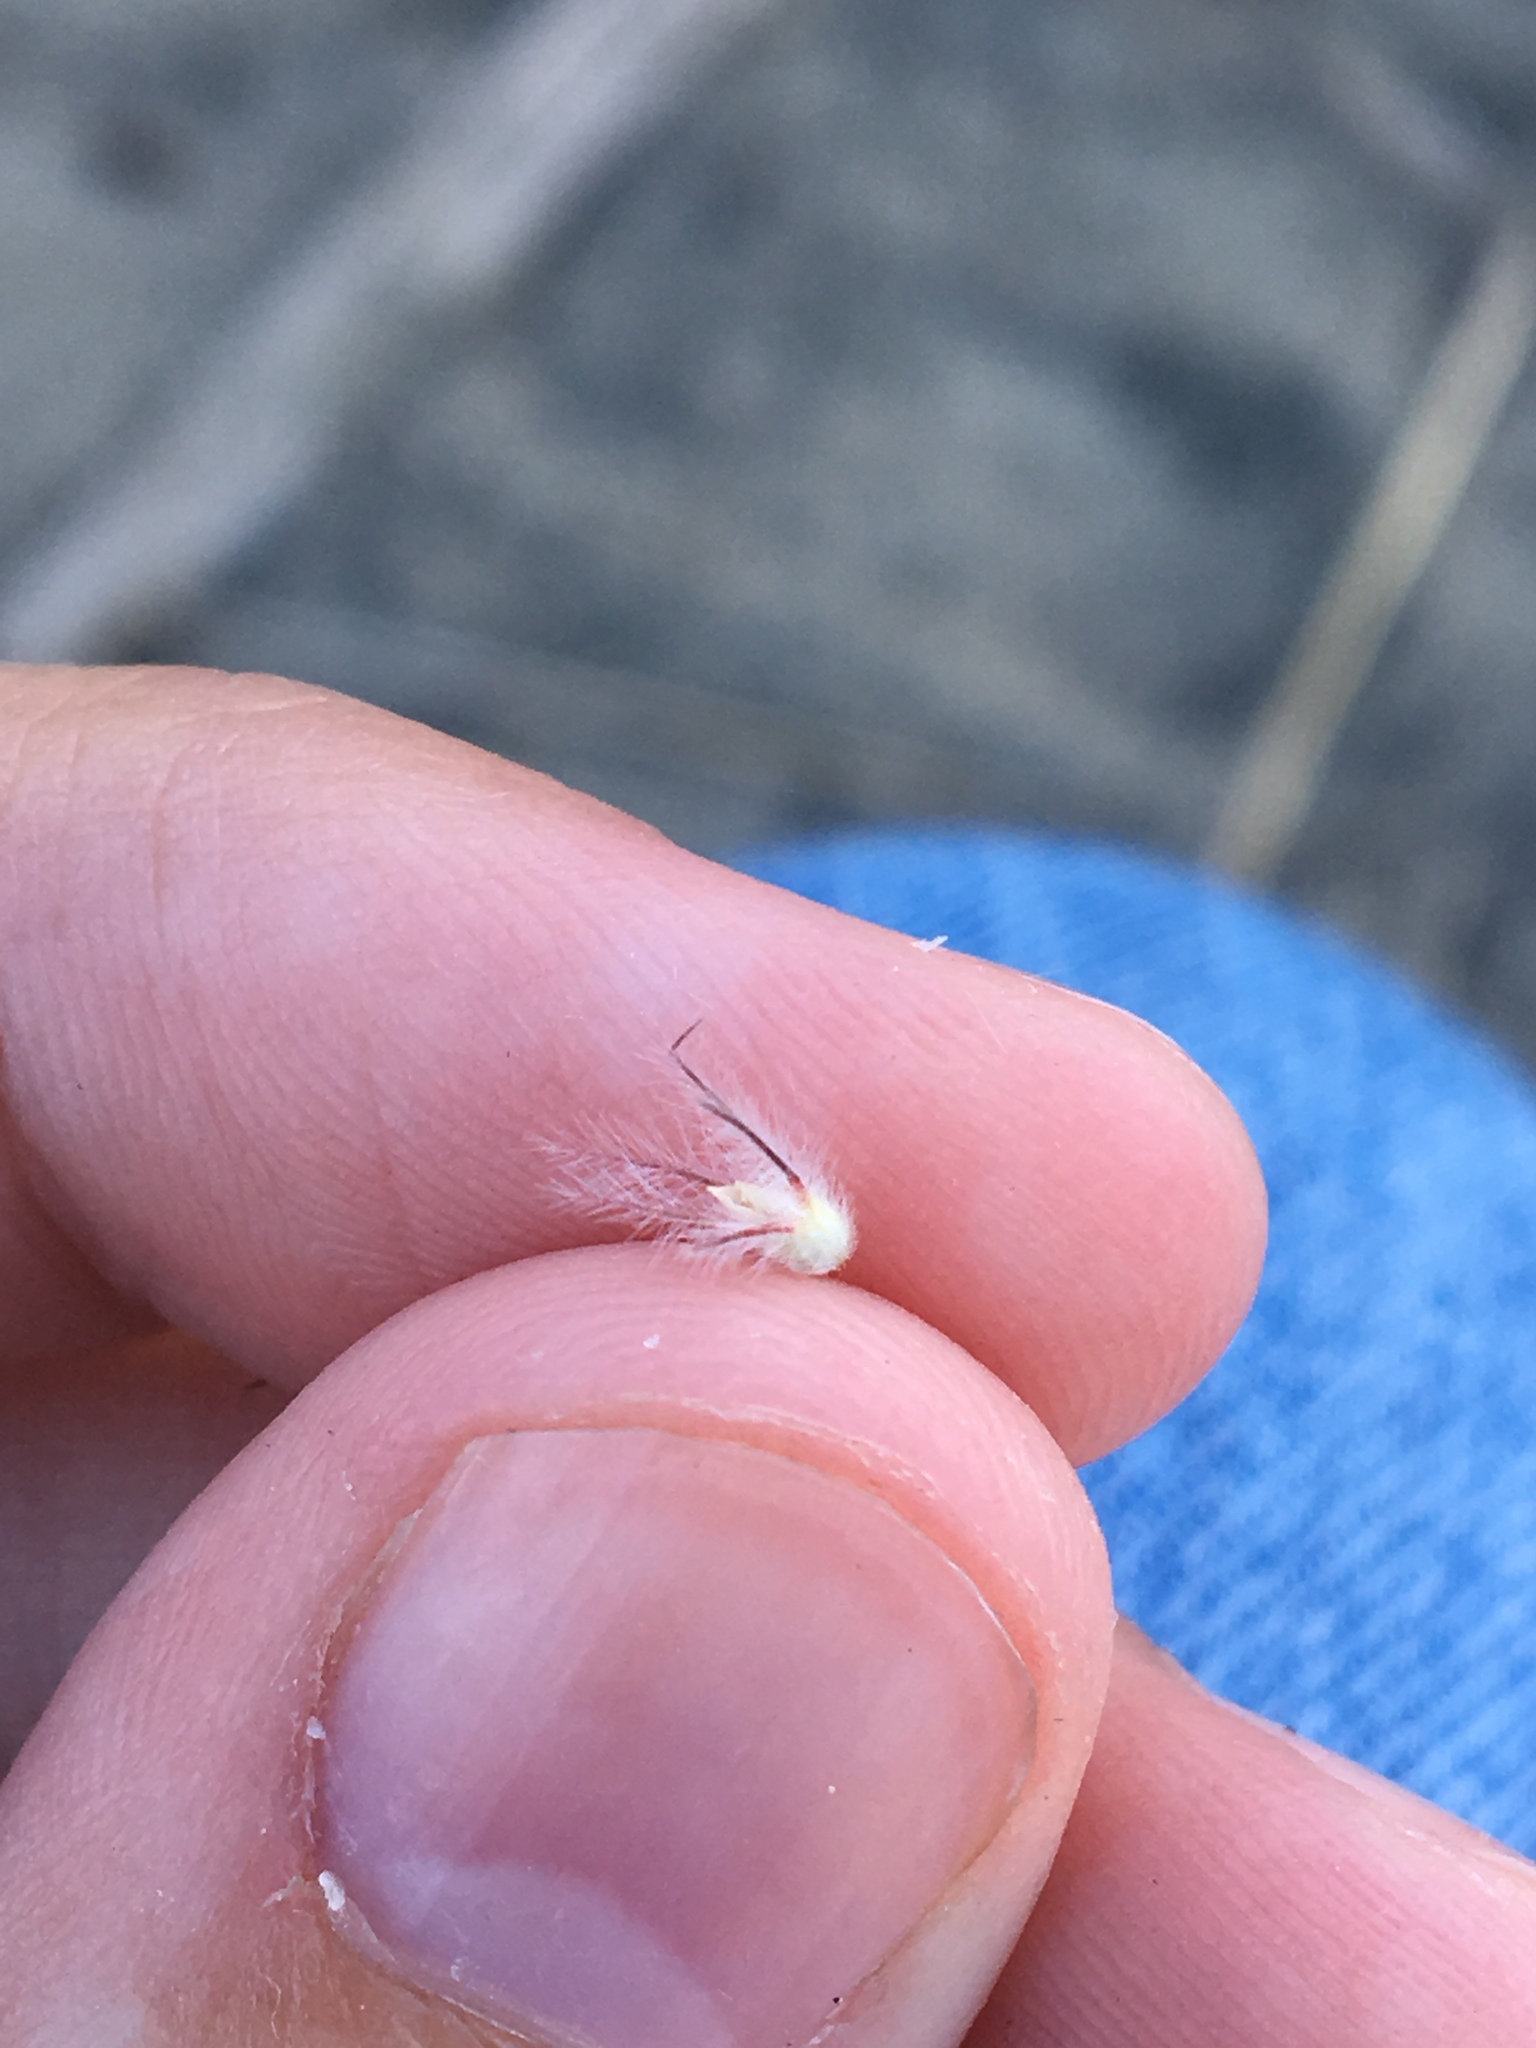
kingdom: Plantae
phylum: Tracheophyta
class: Magnoliopsida
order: Fabales
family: Fabaceae
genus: Trifolium
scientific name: Trifolium arvense
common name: Hare's-foot clover
